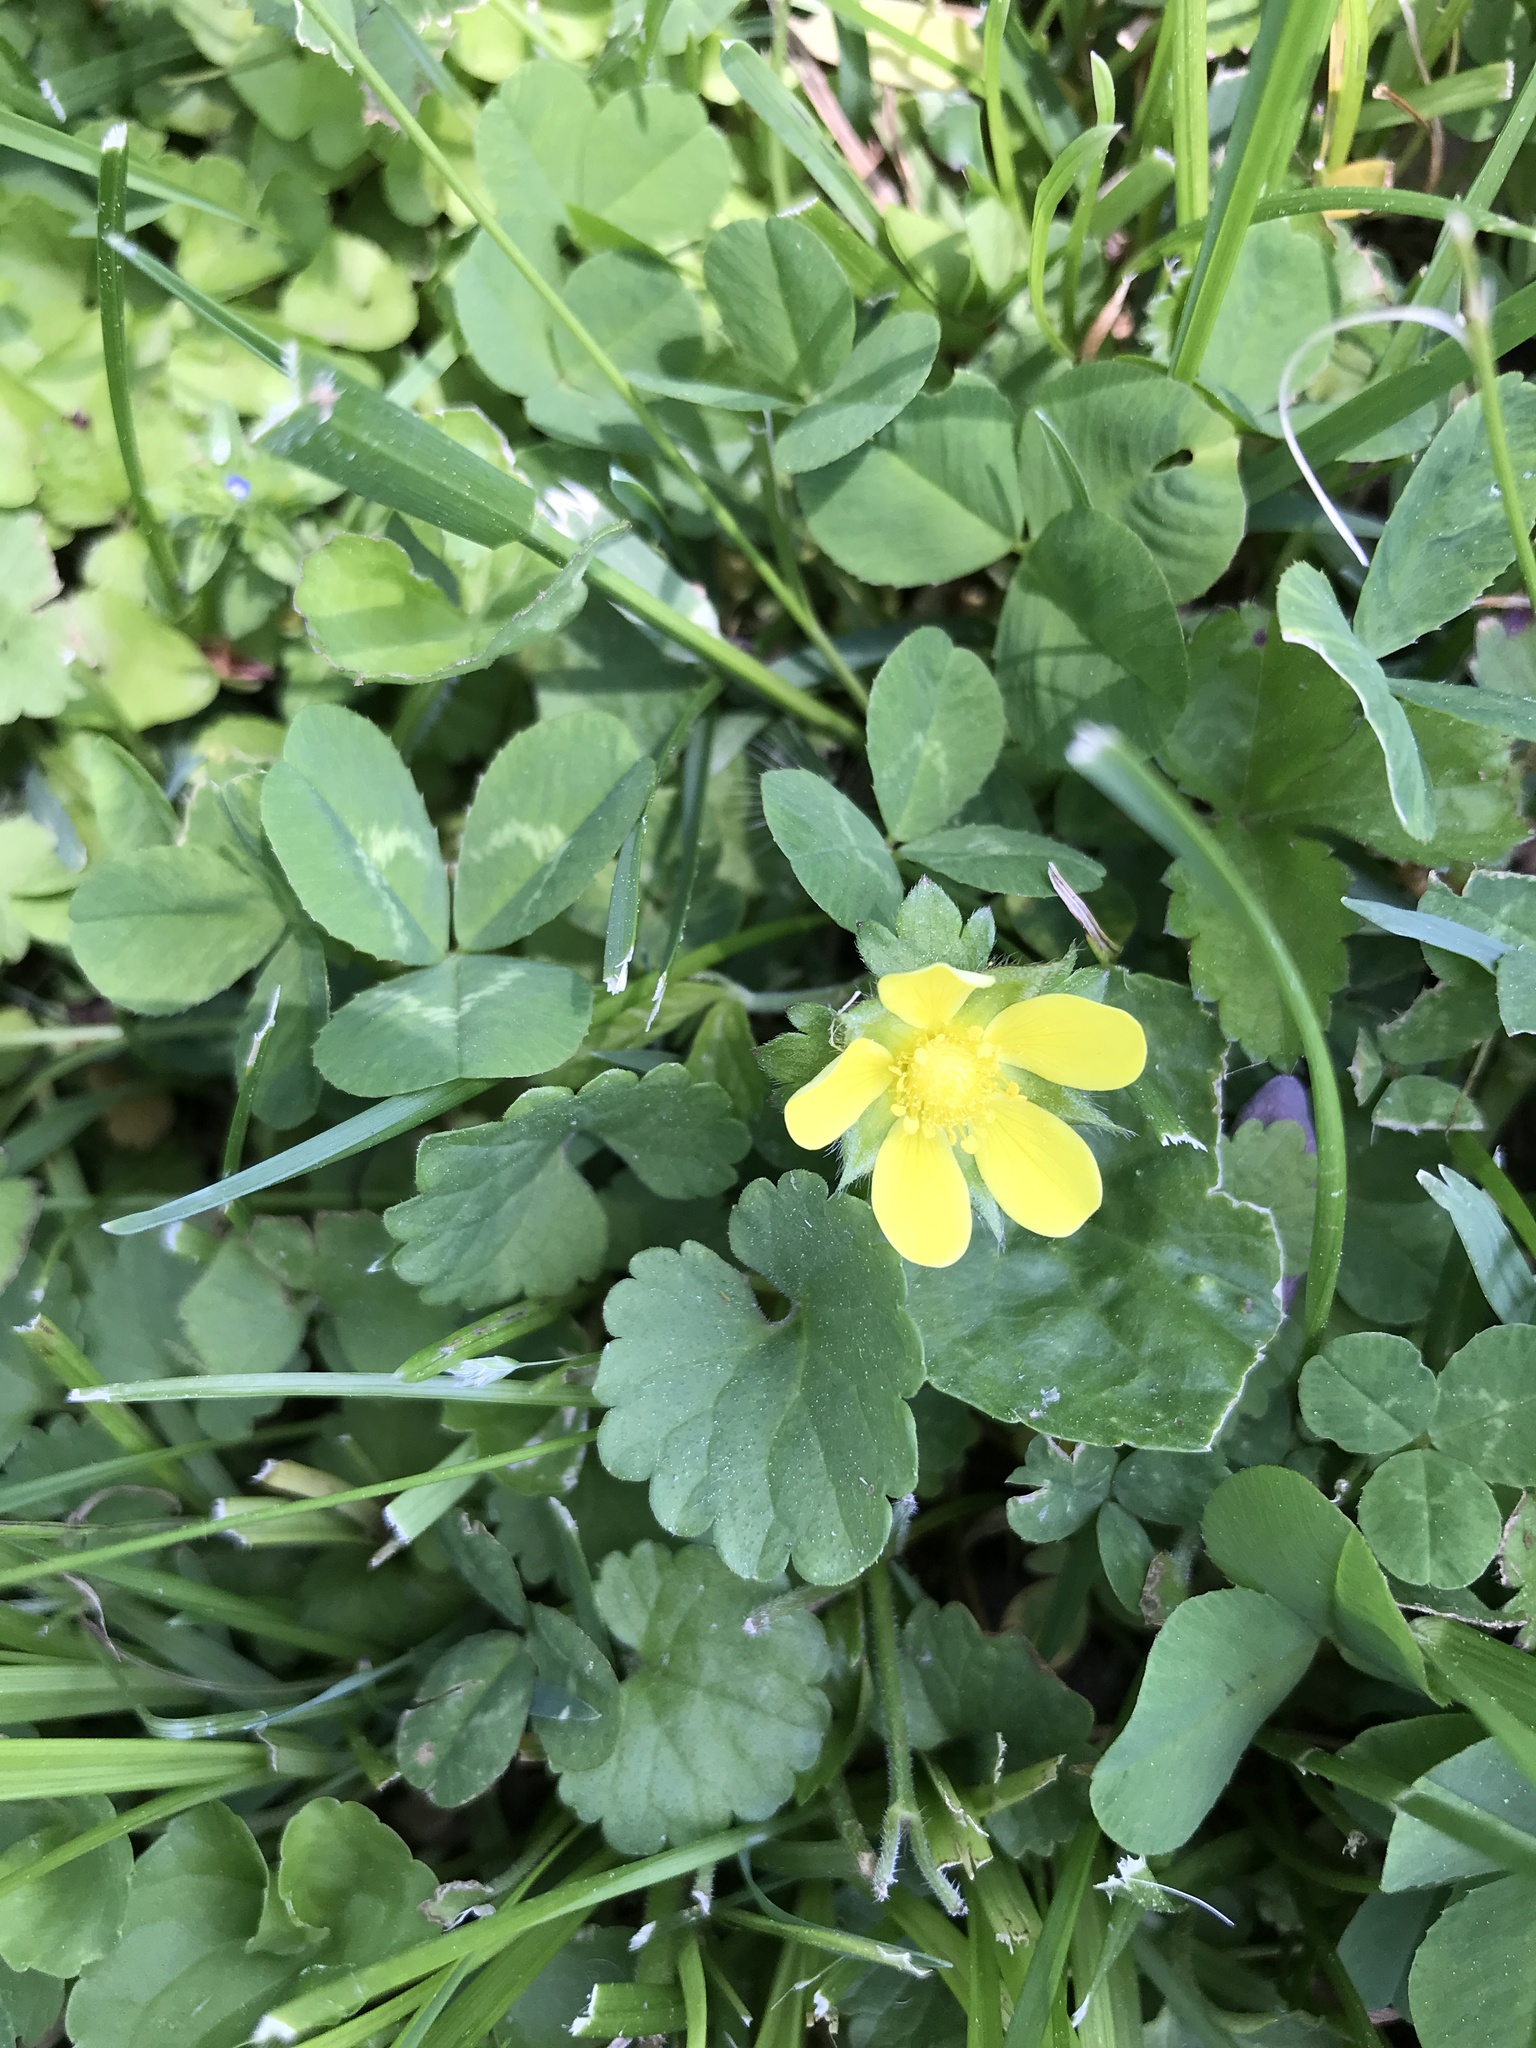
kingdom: Plantae
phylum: Tracheophyta
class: Magnoliopsida
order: Rosales
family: Rosaceae
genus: Potentilla
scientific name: Potentilla indica
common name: Yellow-flowered strawberry
